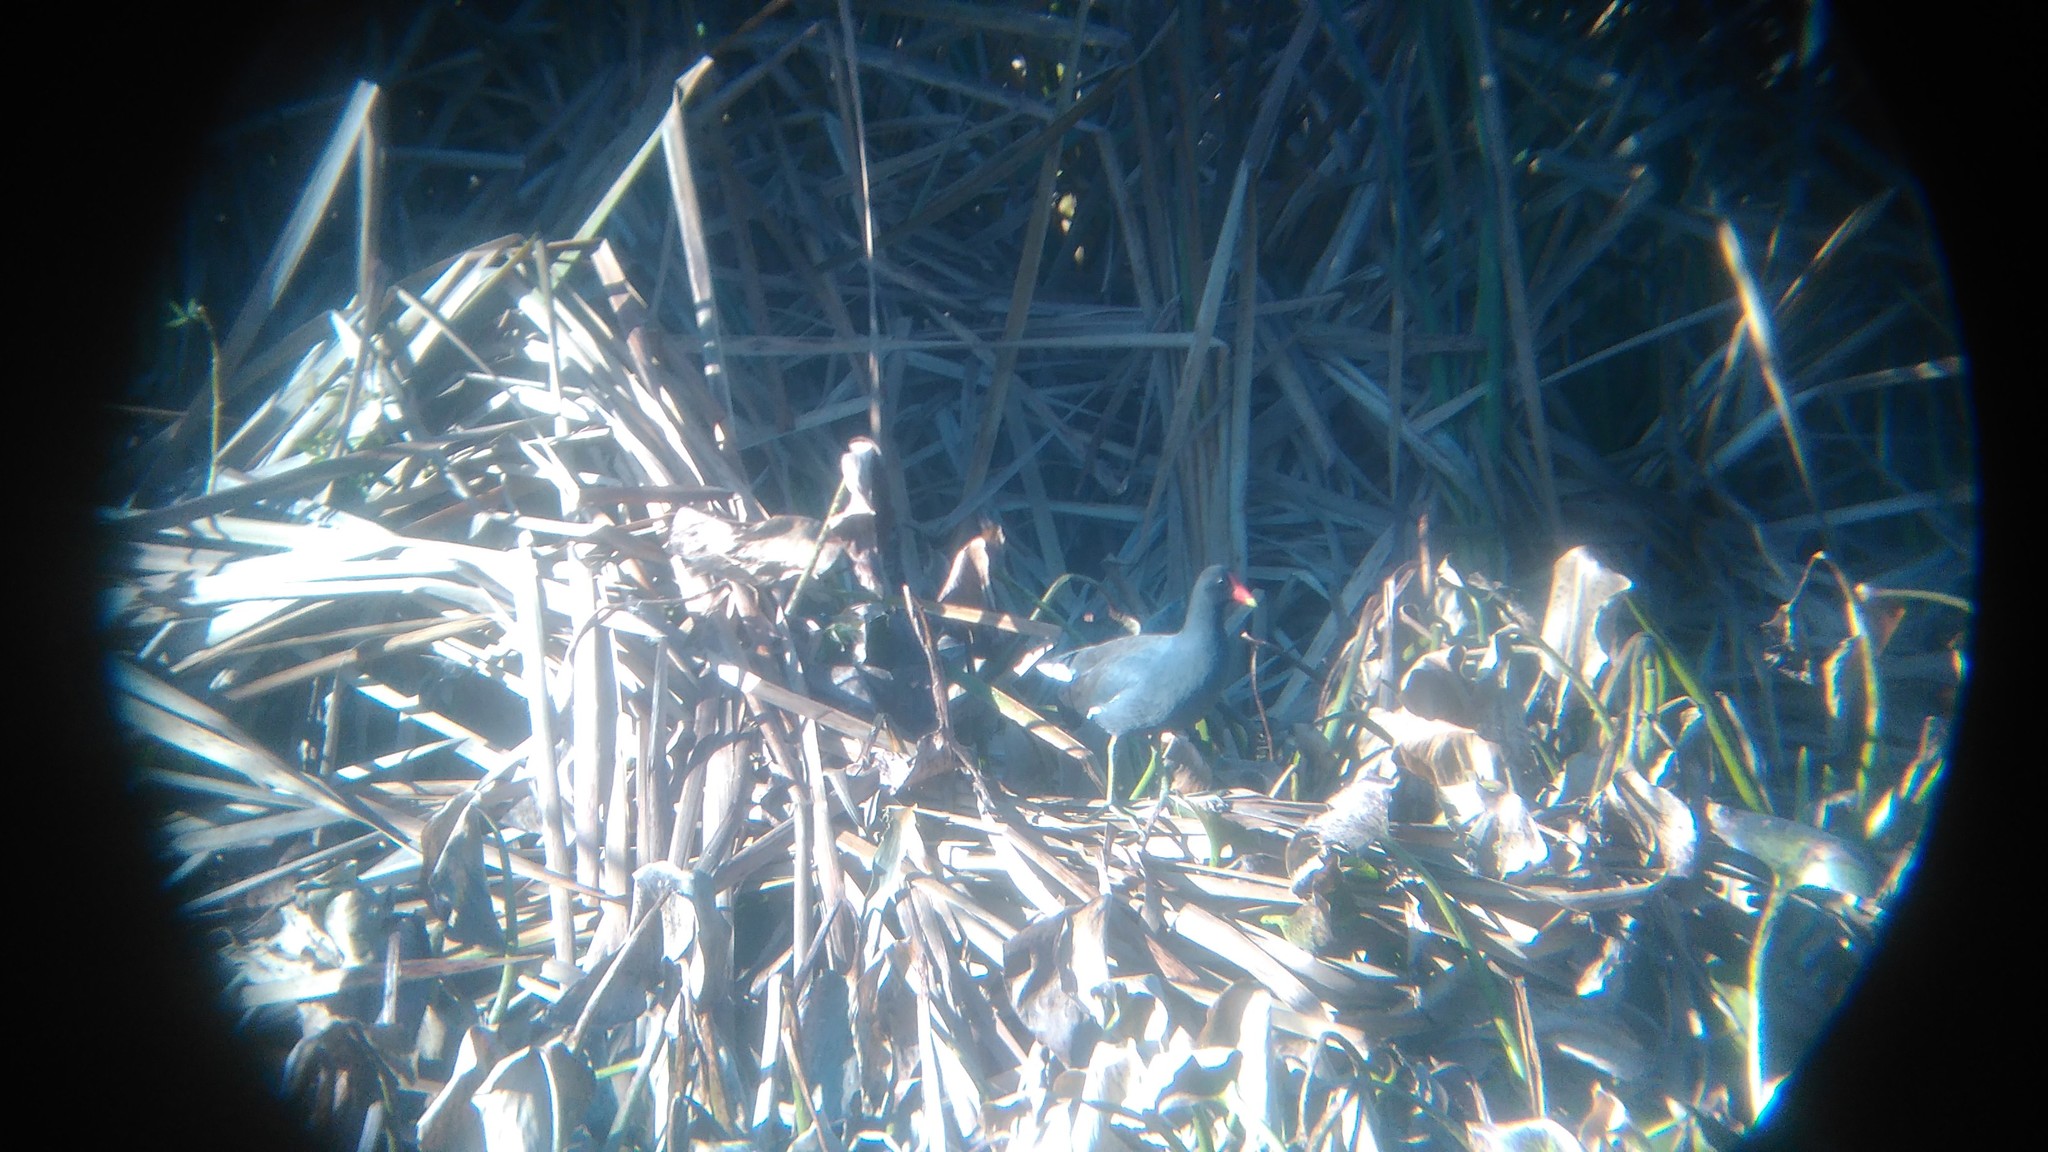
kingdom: Animalia
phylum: Chordata
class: Aves
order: Gruiformes
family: Rallidae
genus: Gallinula
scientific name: Gallinula chloropus
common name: Common moorhen
